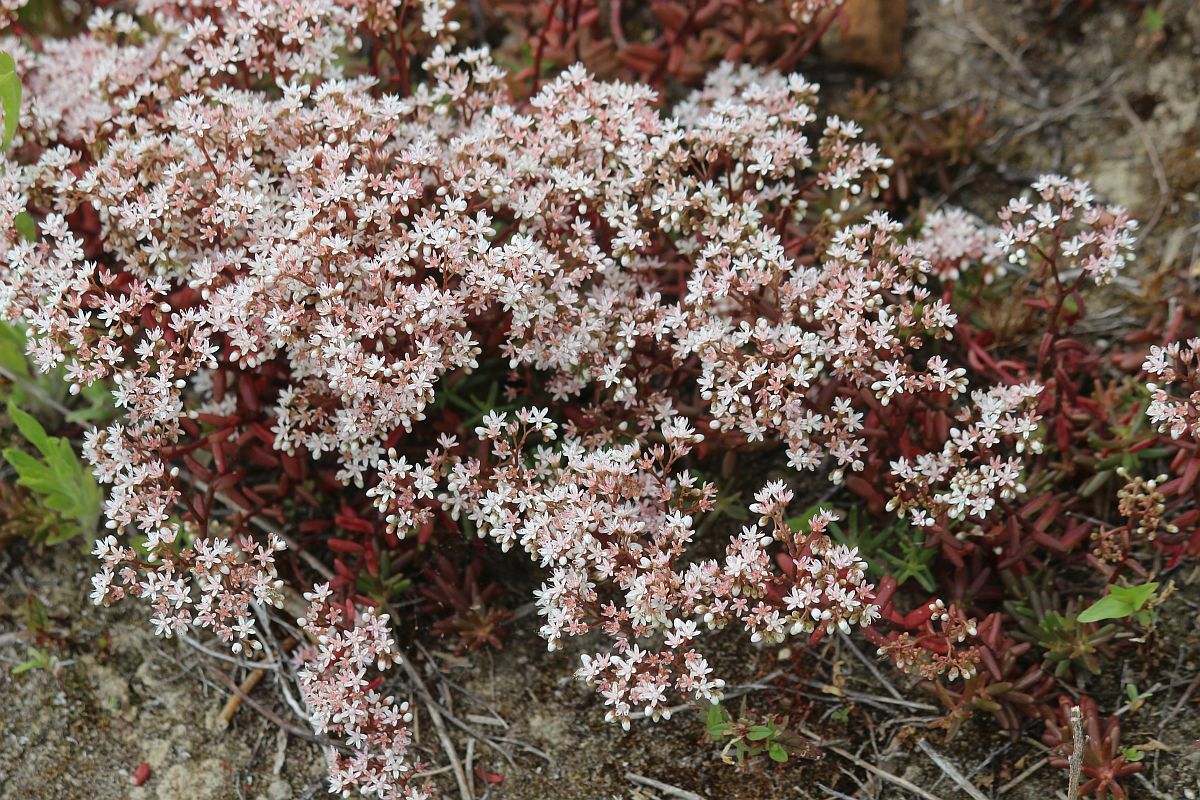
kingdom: Plantae
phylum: Tracheophyta
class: Magnoliopsida
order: Saxifragales
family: Crassulaceae
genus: Sedum
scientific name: Sedum album
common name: White stonecrop
